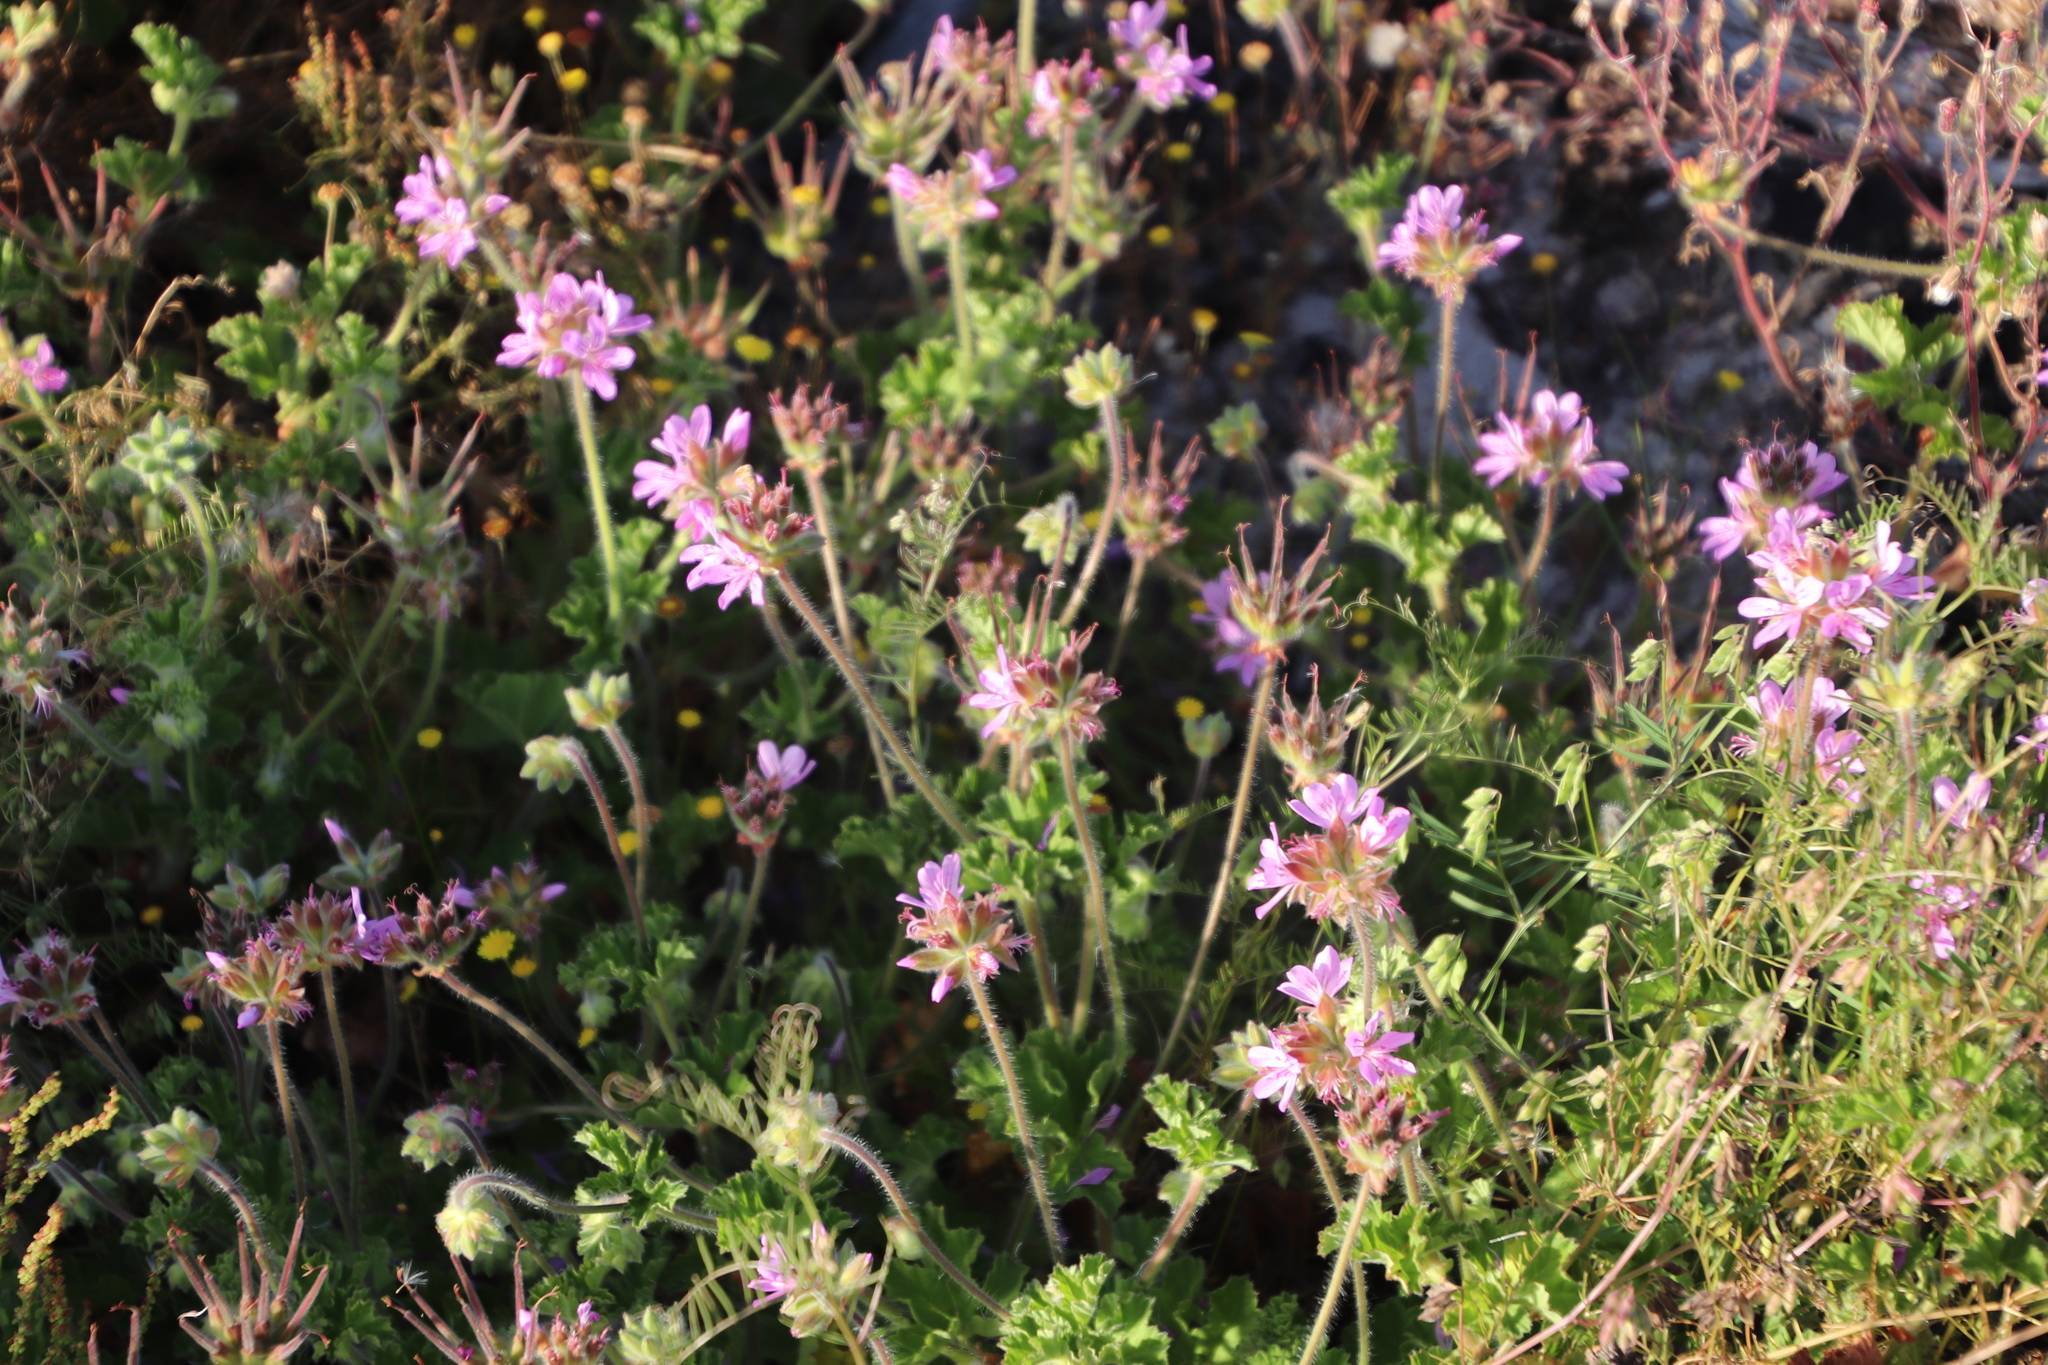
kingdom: Plantae
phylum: Tracheophyta
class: Magnoliopsida
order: Geraniales
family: Geraniaceae
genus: Pelargonium
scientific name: Pelargonium capitatum
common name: Rose scented geranium
